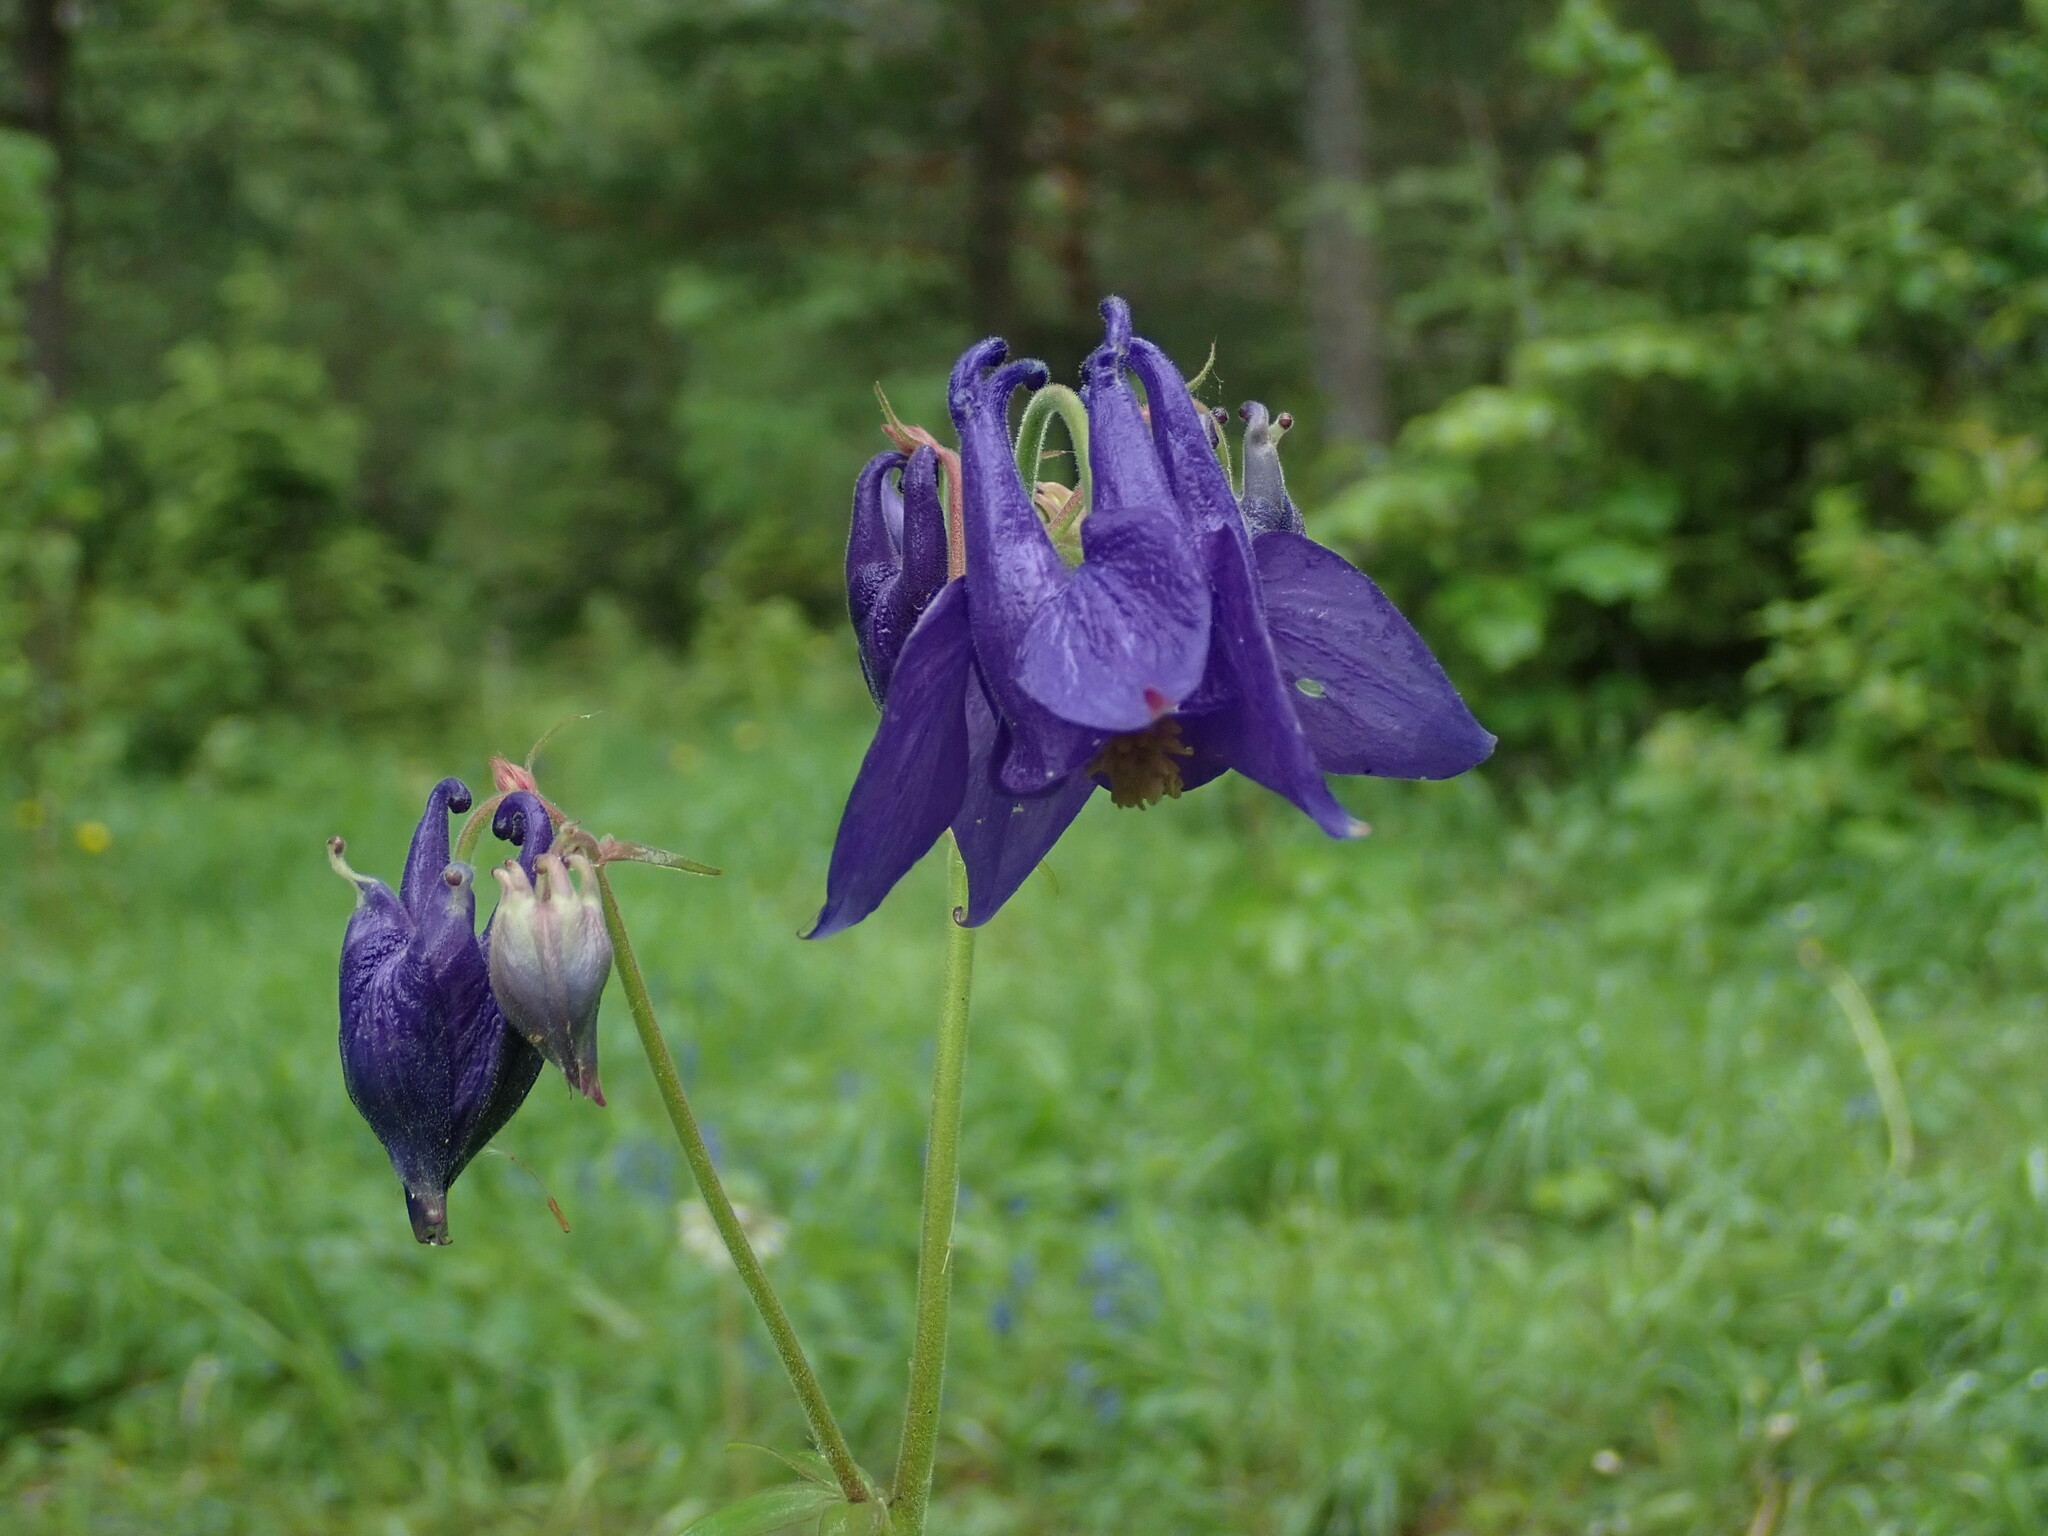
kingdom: Plantae
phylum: Tracheophyta
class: Magnoliopsida
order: Ranunculales
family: Ranunculaceae
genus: Aquilegia
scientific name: Aquilegia vulgaris
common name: Columbine
